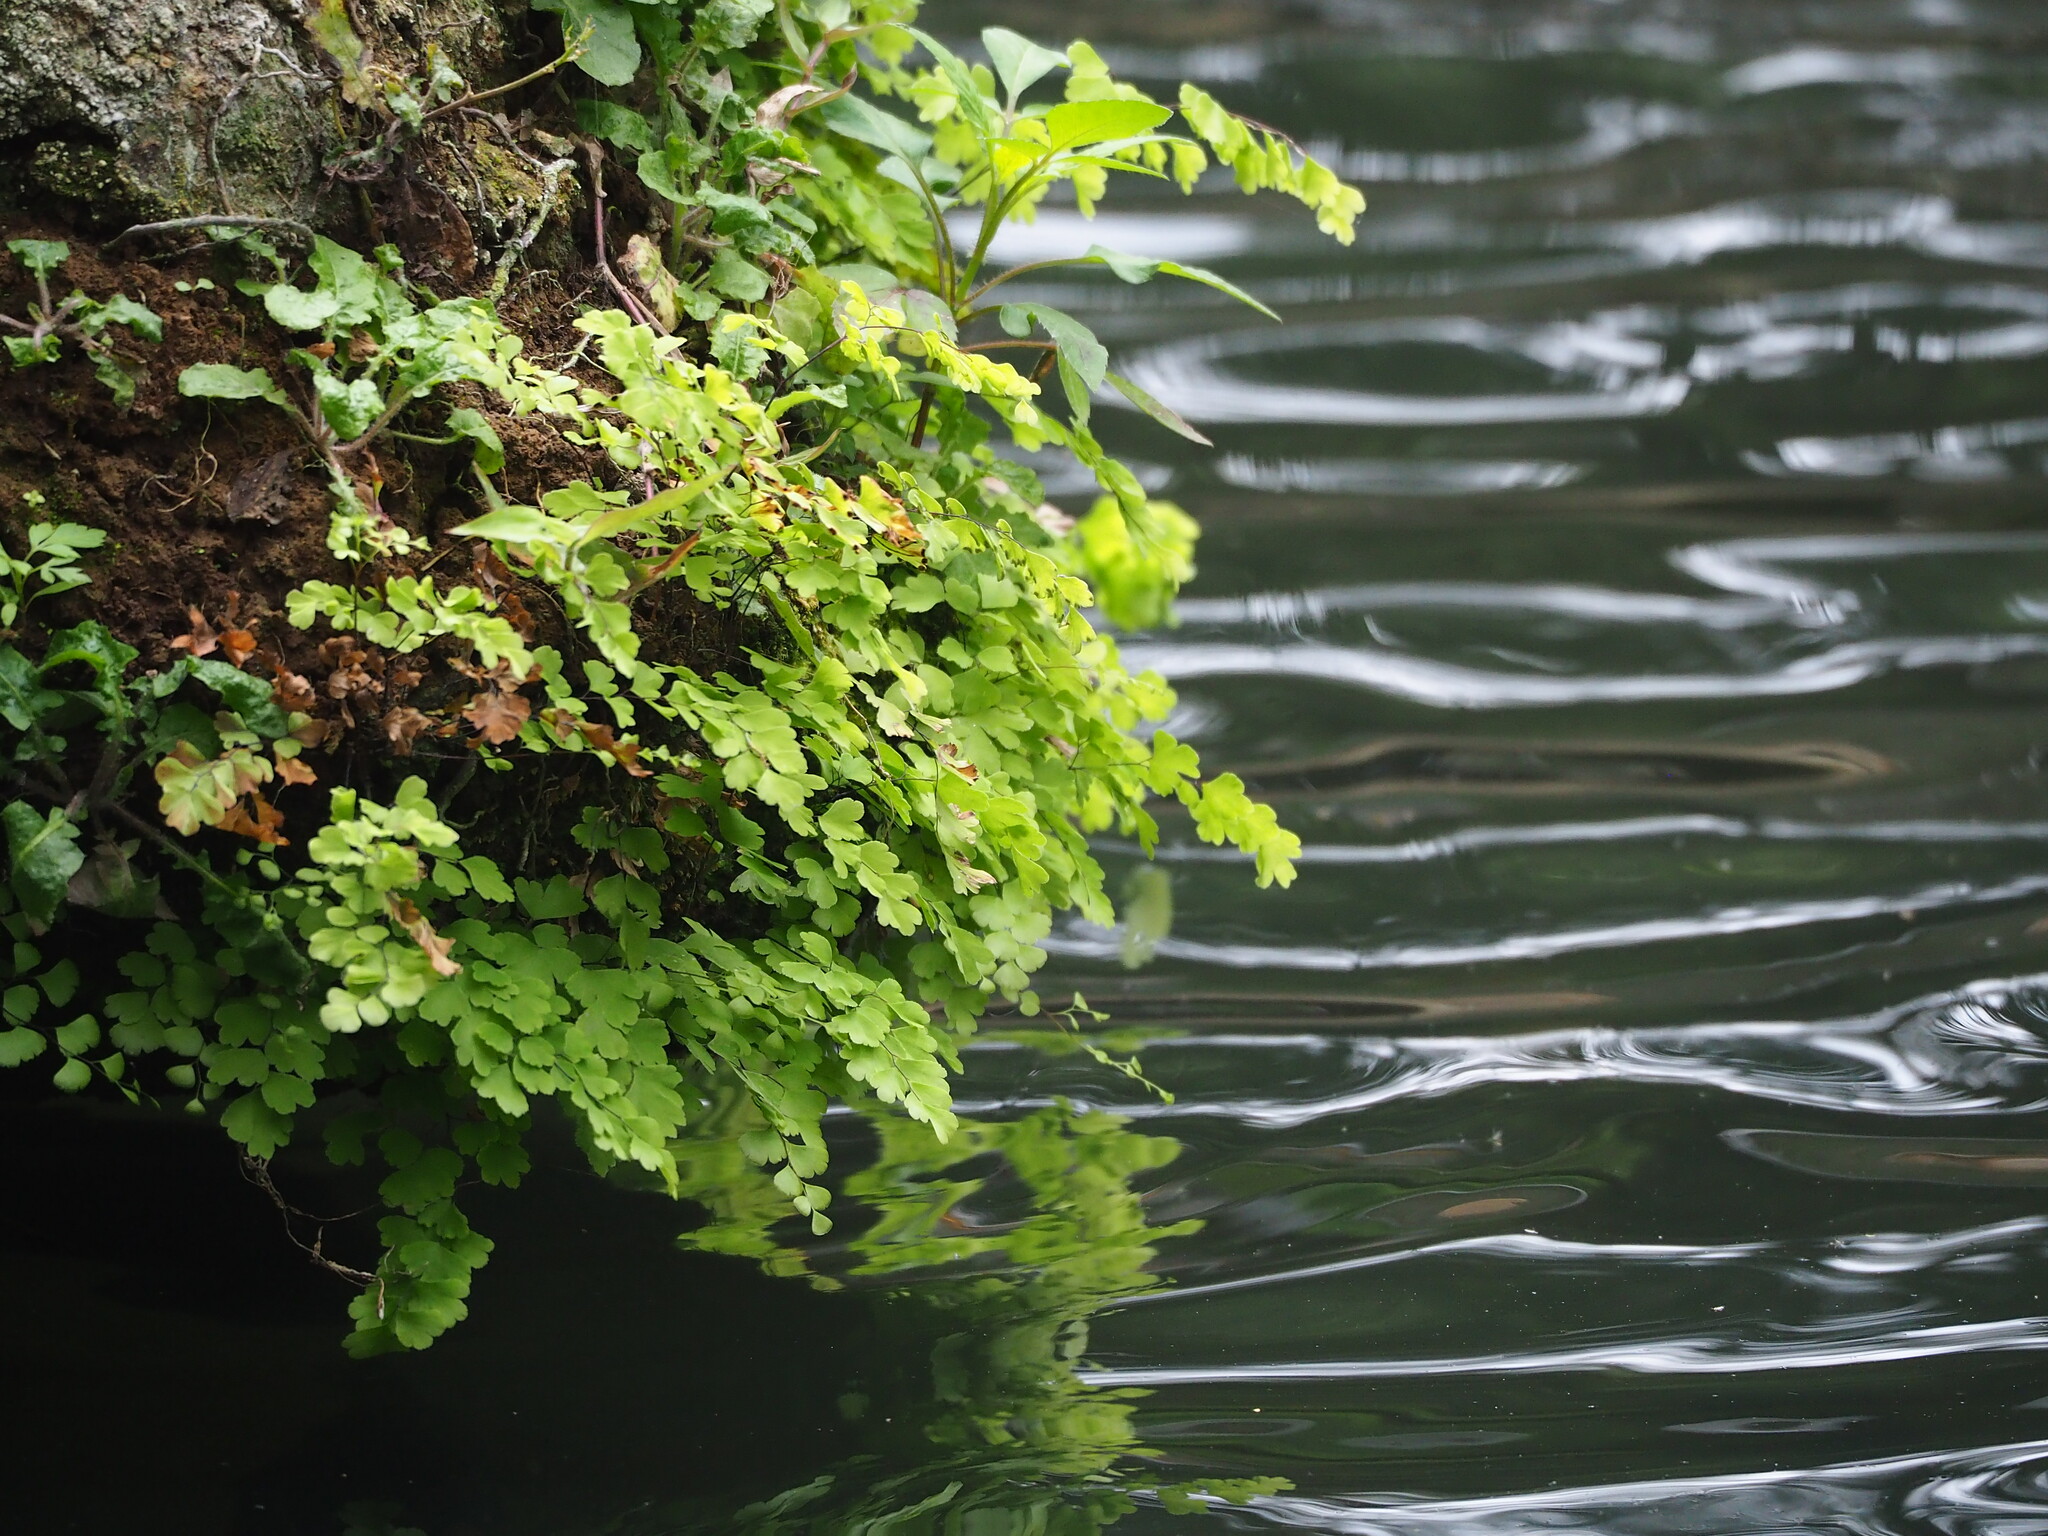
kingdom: Plantae
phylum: Tracheophyta
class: Polypodiopsida
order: Polypodiales
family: Pteridaceae
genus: Adiantum
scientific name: Adiantum capillus-veneris
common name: Maidenhair fern
